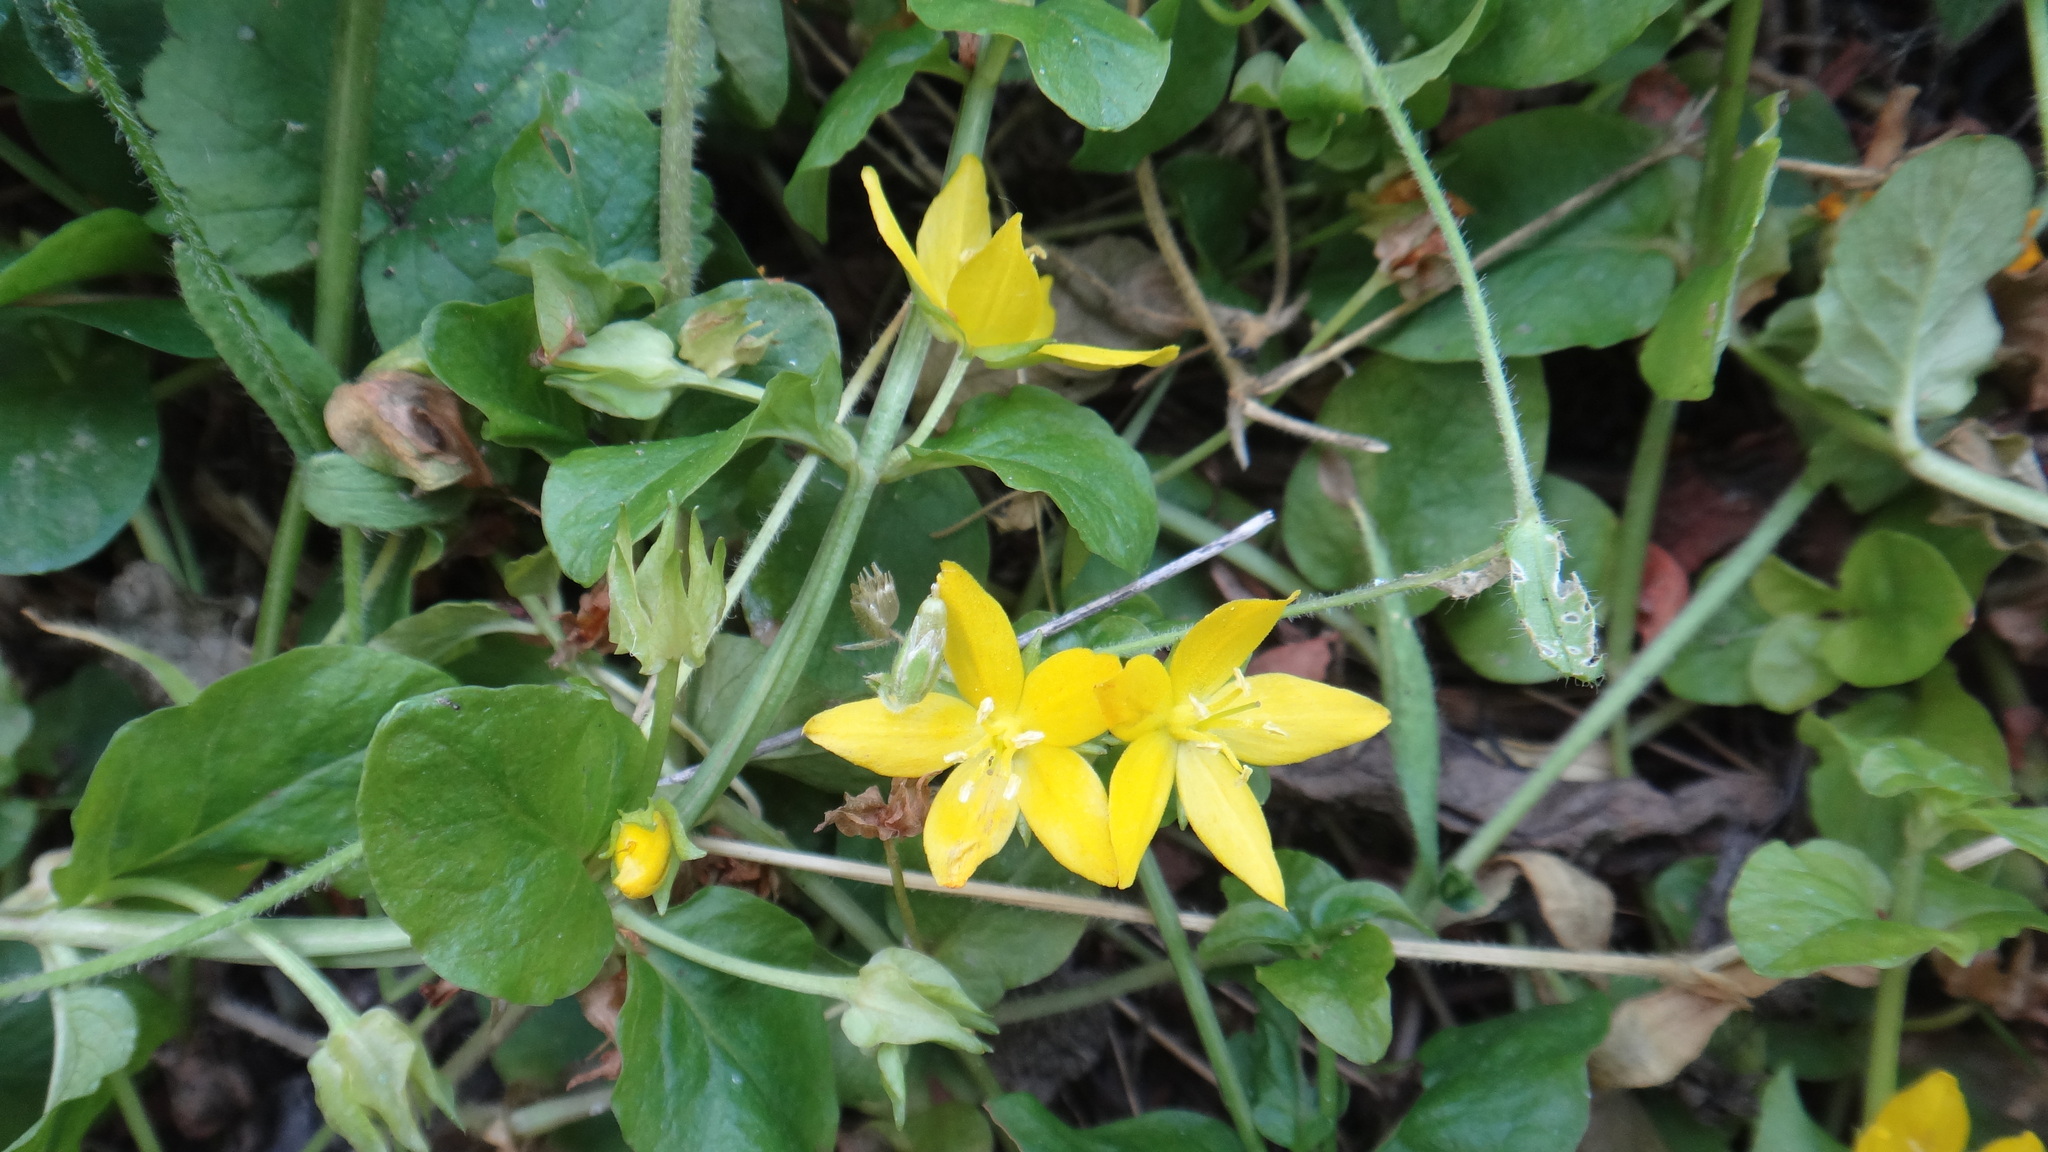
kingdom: Plantae
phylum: Tracheophyta
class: Magnoliopsida
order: Ericales
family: Primulaceae
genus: Lysimachia
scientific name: Lysimachia nummularia
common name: Moneywort
